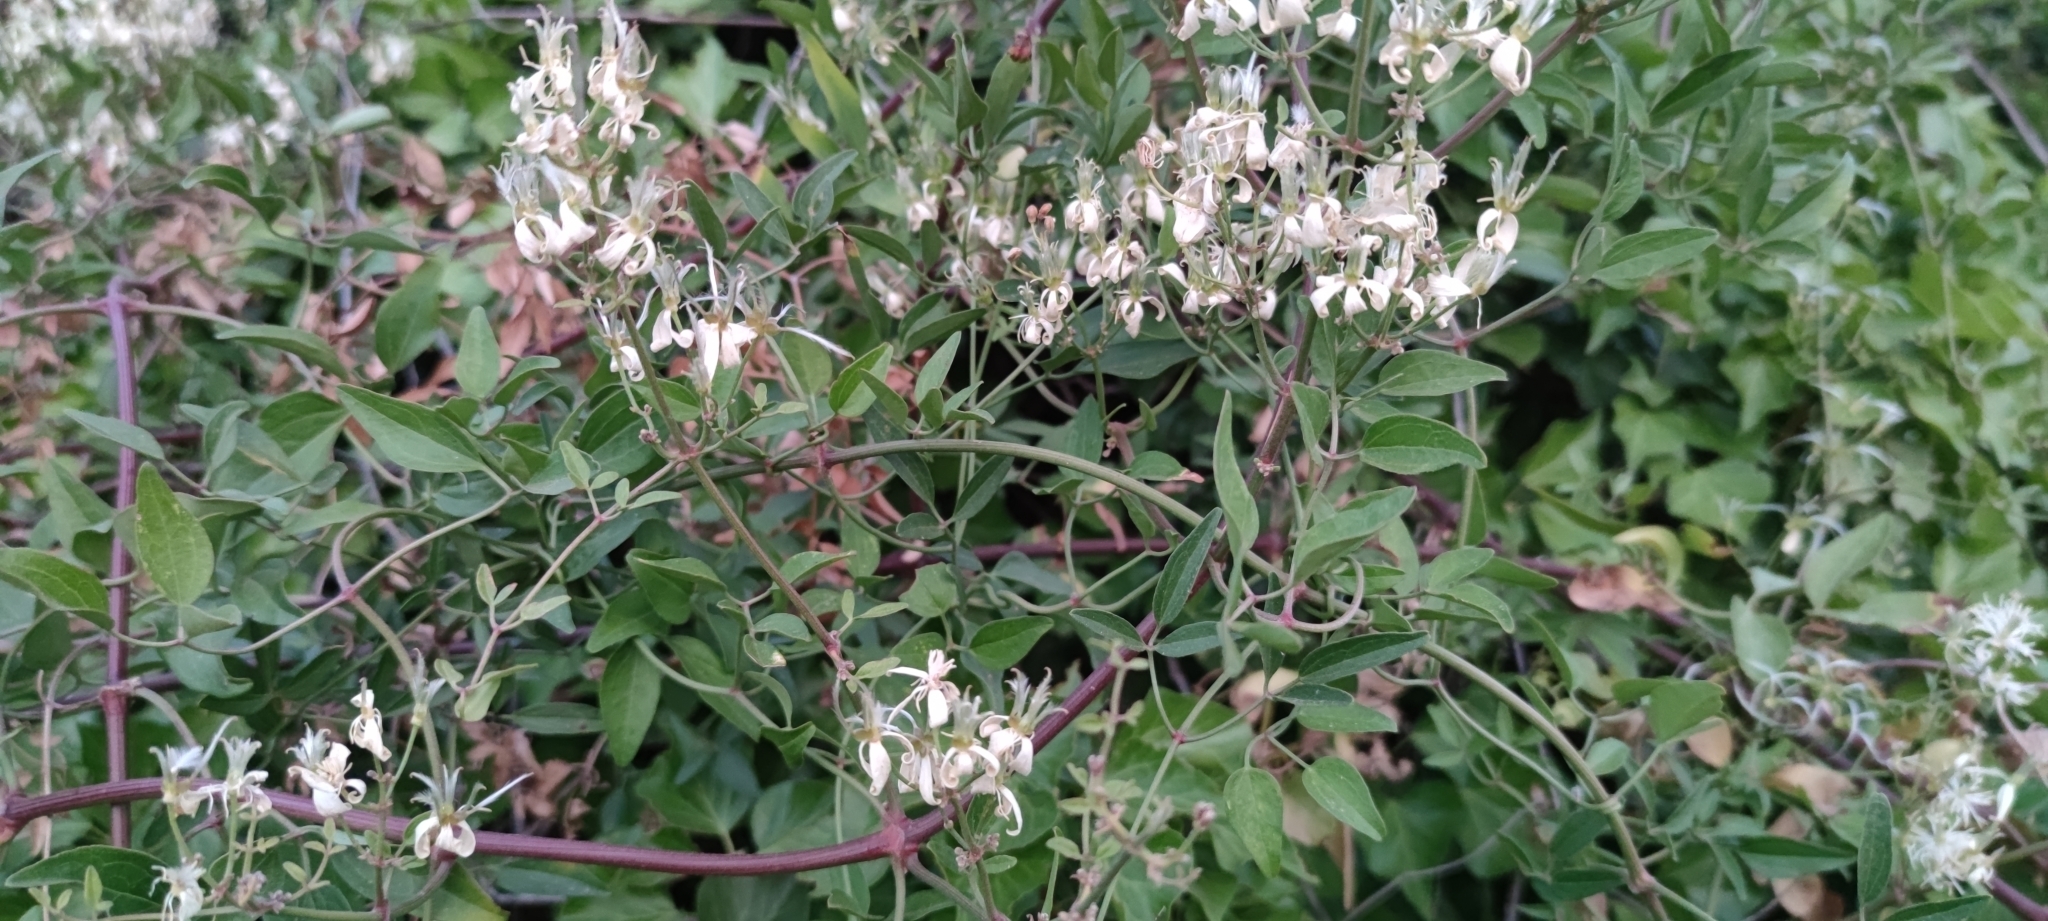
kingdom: Plantae
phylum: Tracheophyta
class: Magnoliopsida
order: Ranunculales
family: Ranunculaceae
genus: Clematis
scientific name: Clematis flammula
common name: Virgin's-bower
